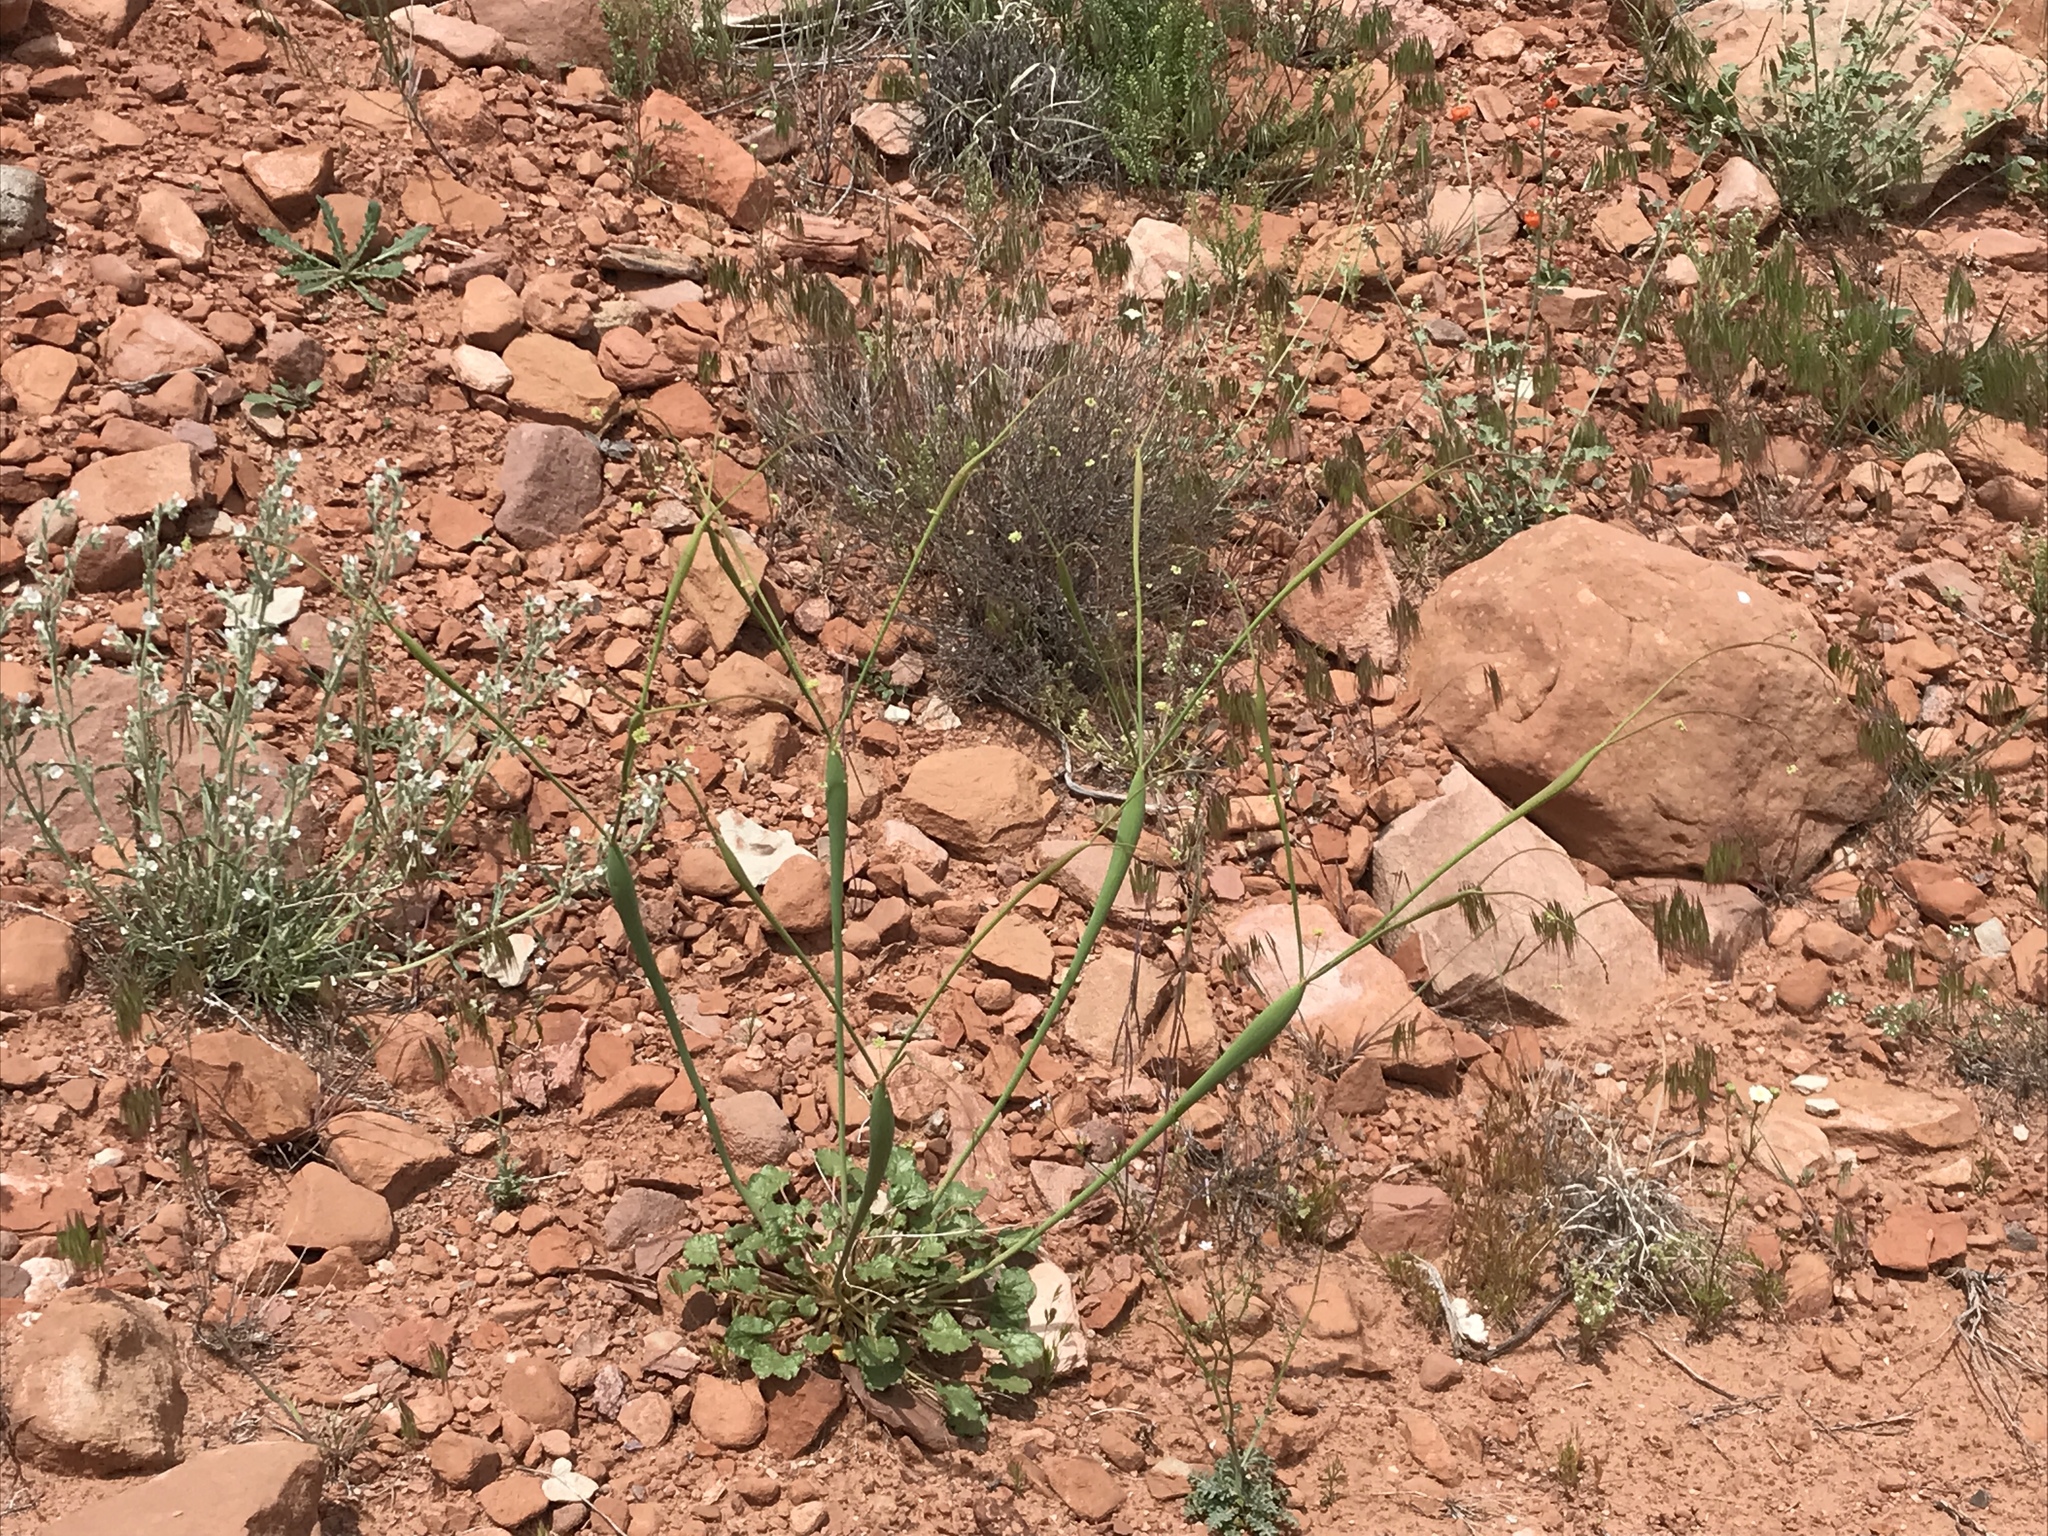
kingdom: Plantae
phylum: Tracheophyta
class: Magnoliopsida
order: Caryophyllales
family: Polygonaceae
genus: Eriogonum
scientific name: Eriogonum inflatum
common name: Desert trumpet
